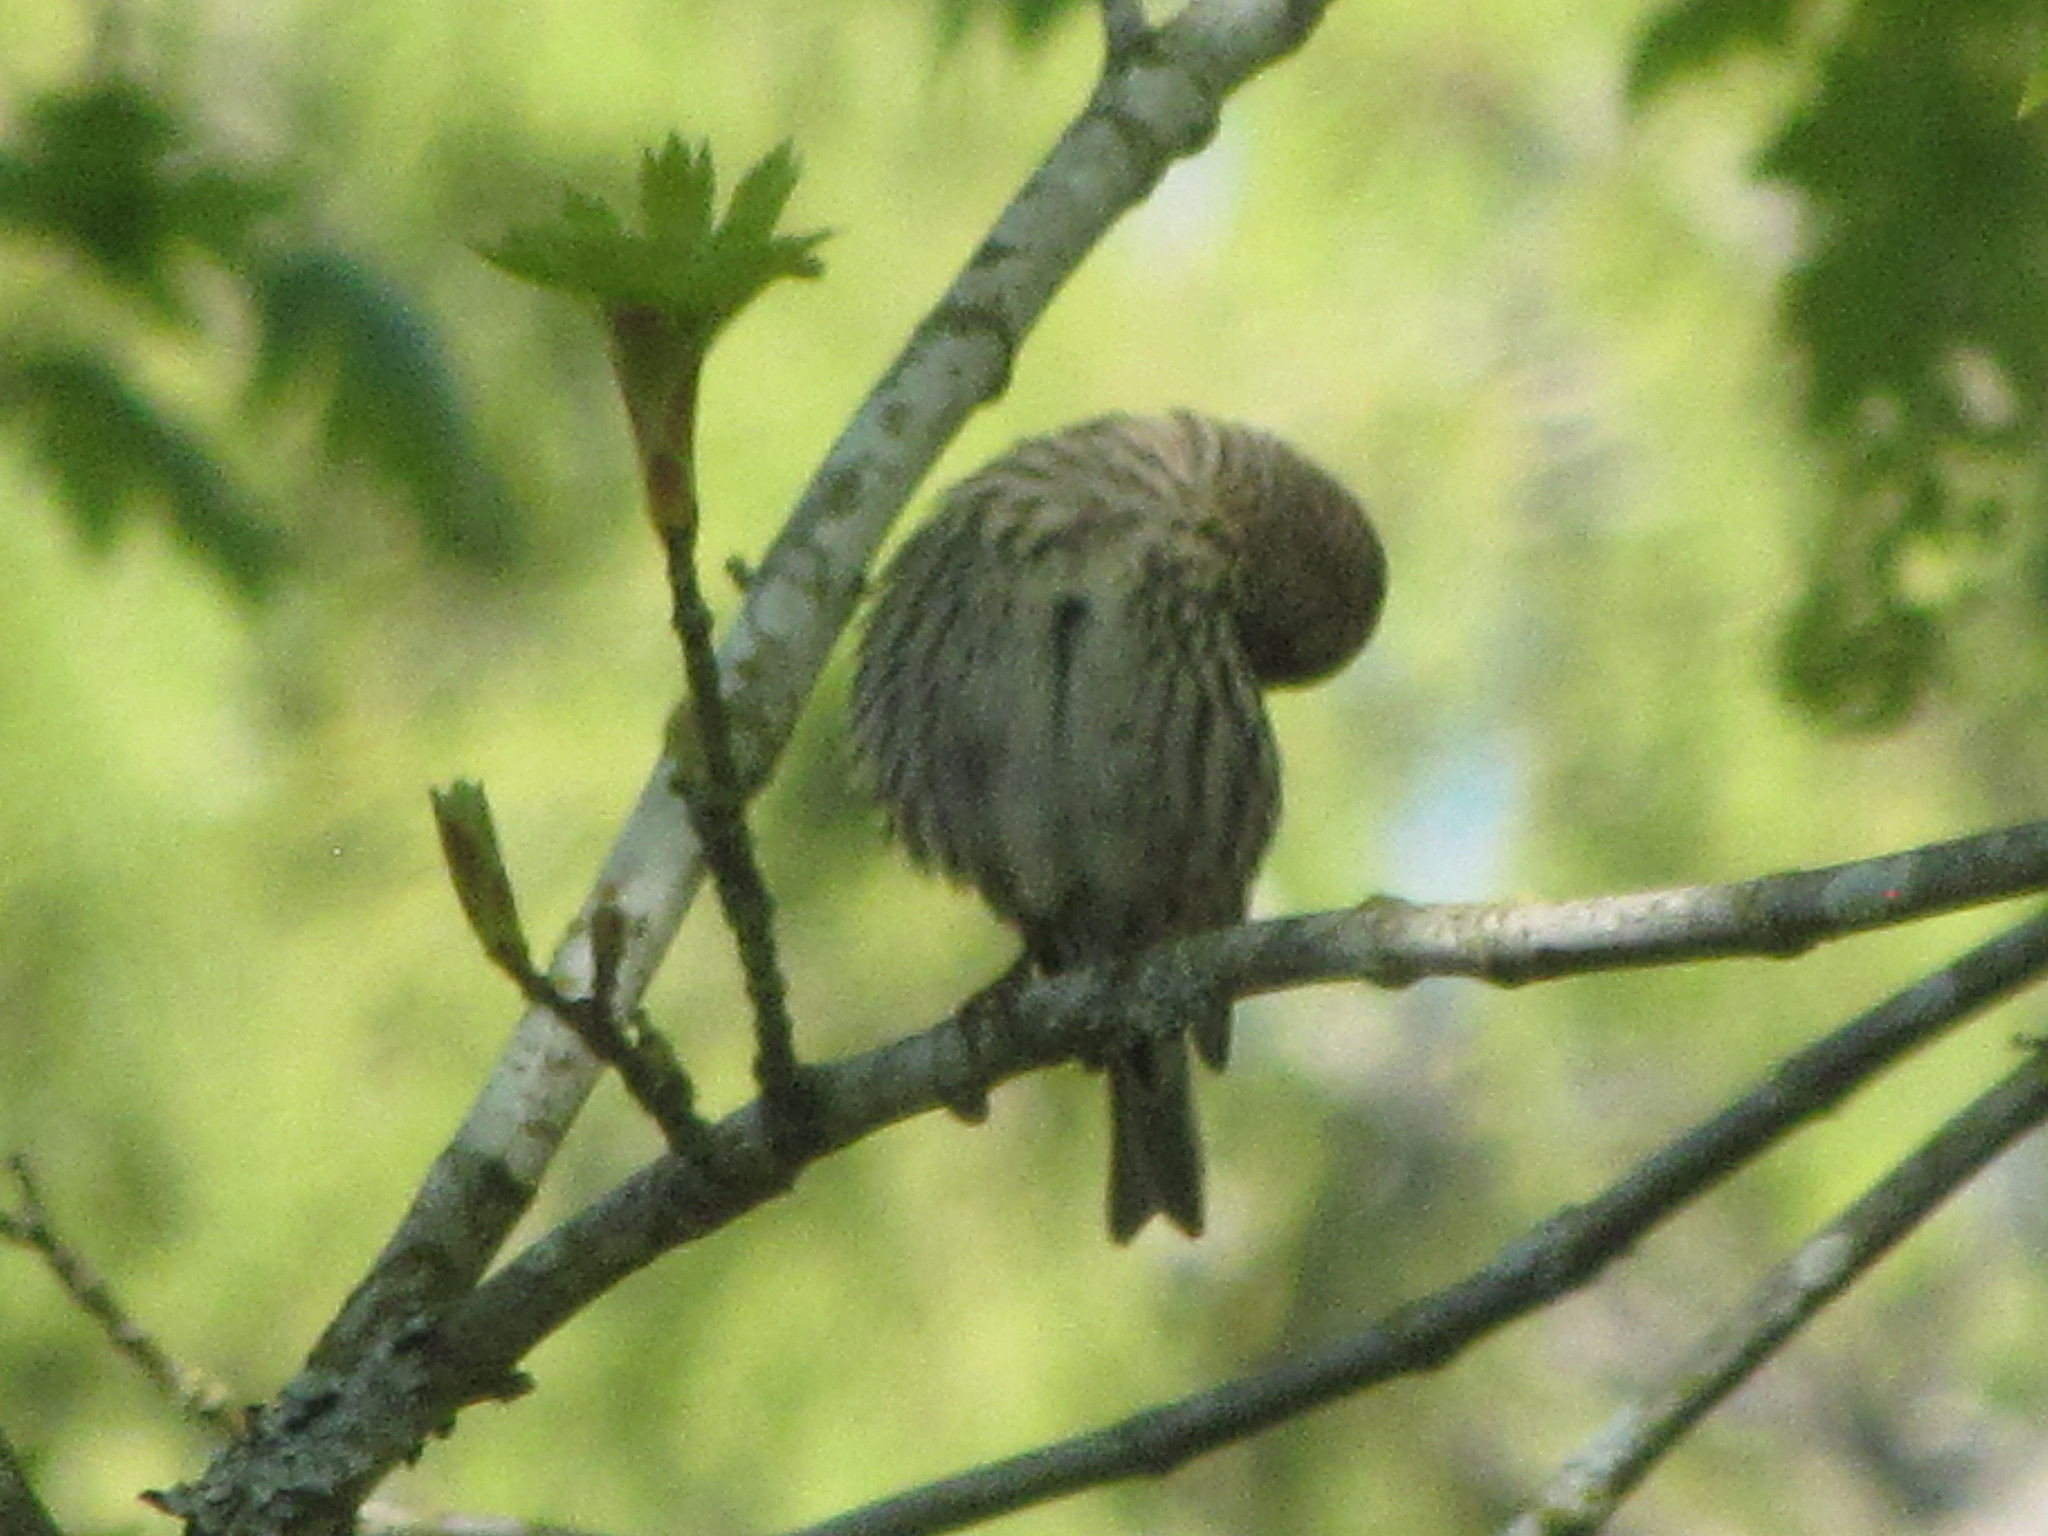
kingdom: Animalia
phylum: Chordata
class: Aves
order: Passeriformes
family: Fringillidae
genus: Spinus
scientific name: Spinus pinus
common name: Pine siskin
